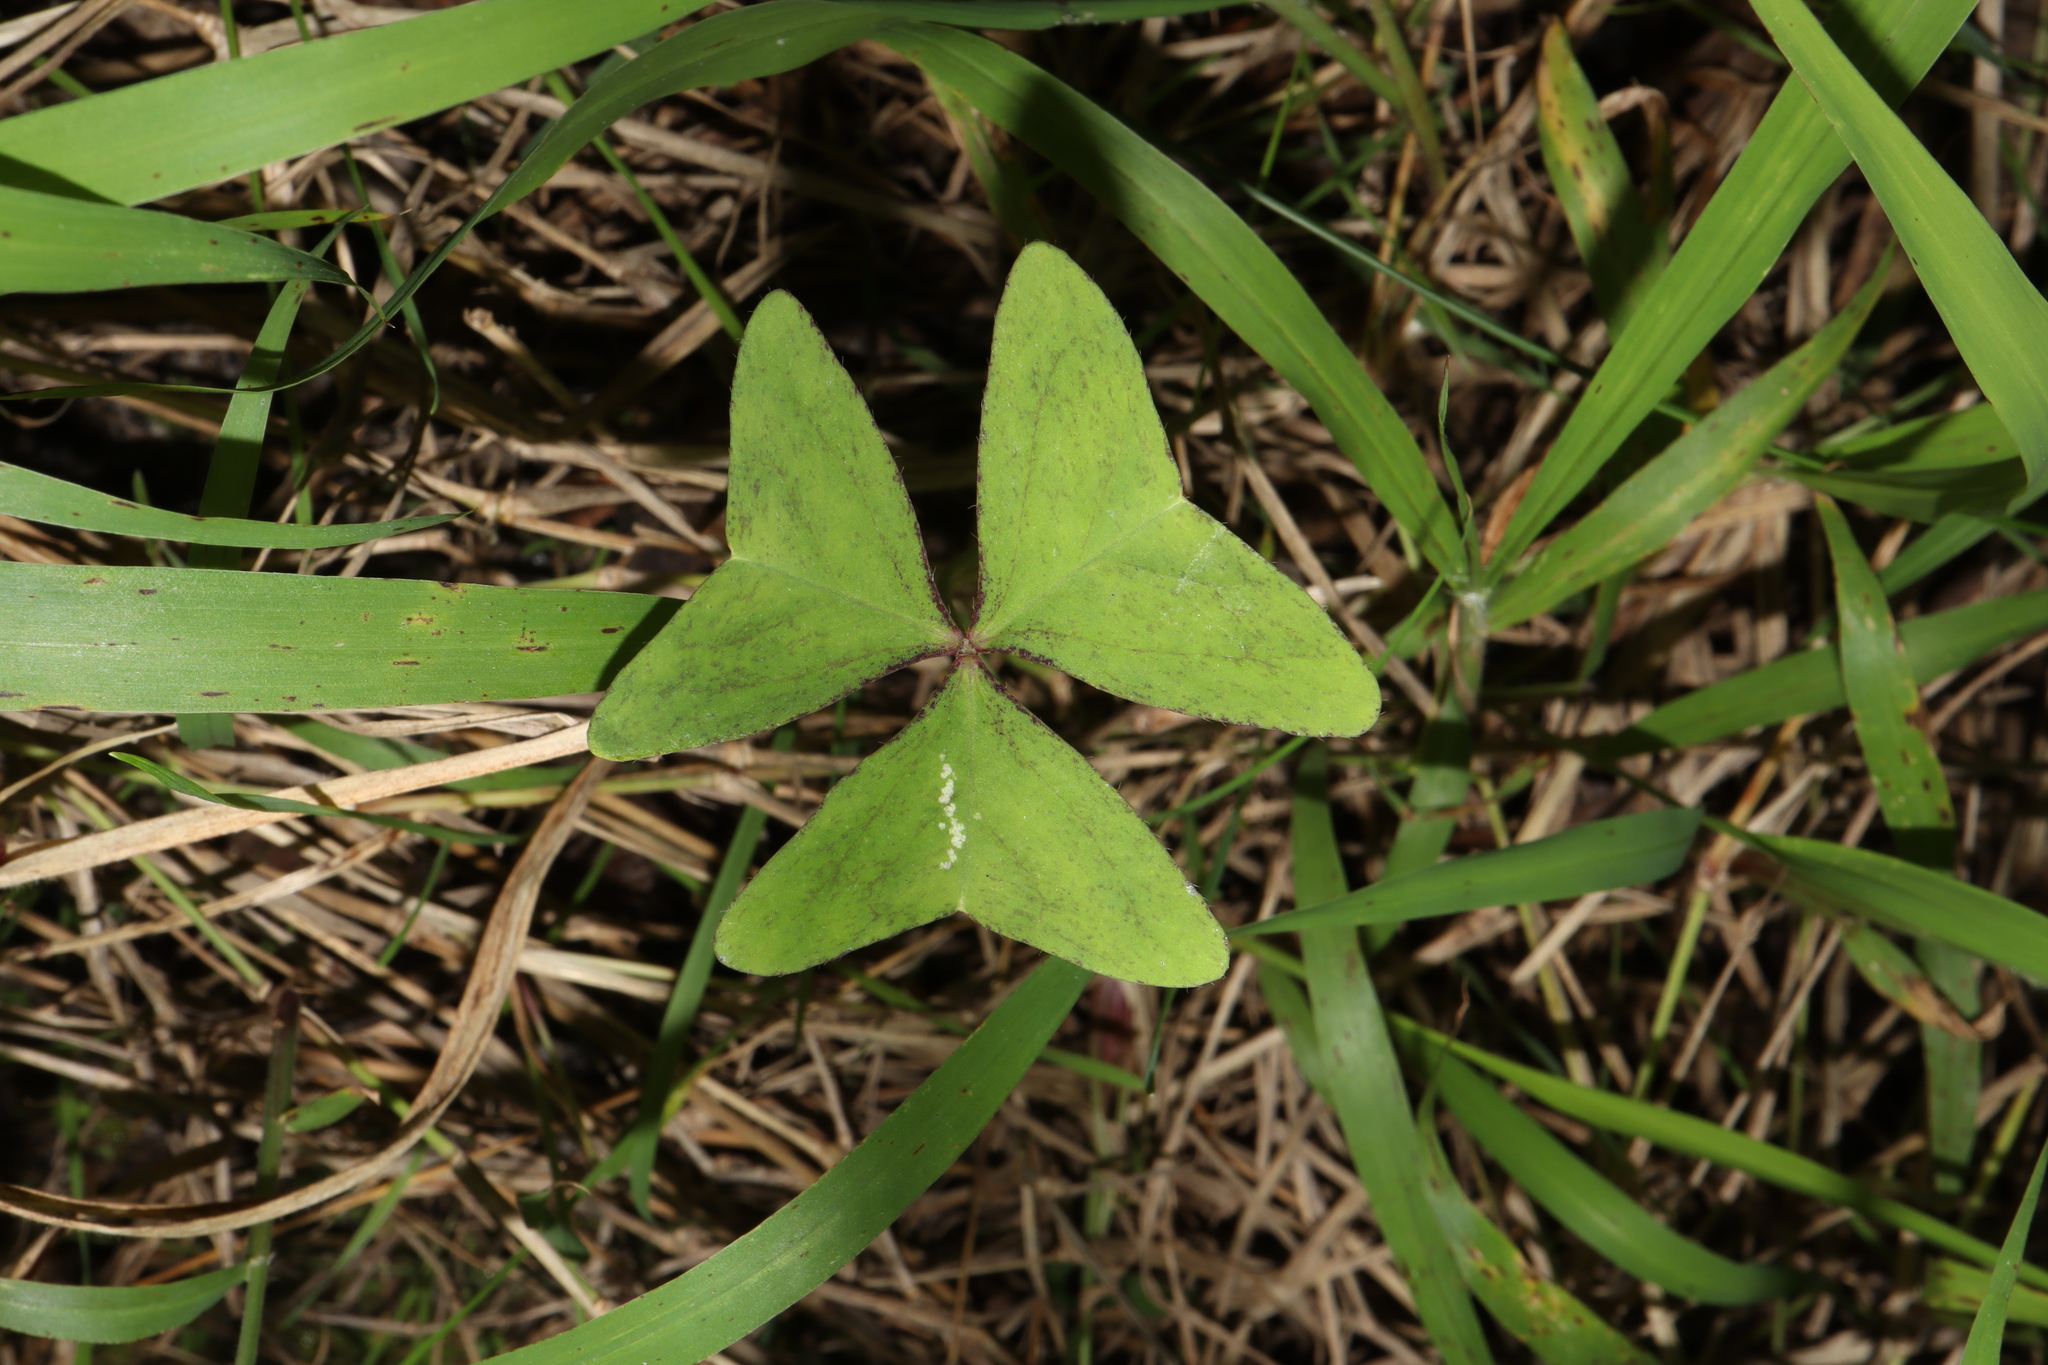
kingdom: Plantae
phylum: Tracheophyta
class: Magnoliopsida
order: Oxalidales
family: Oxalidaceae
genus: Oxalis
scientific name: Oxalis latifolia
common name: Garden pink-sorrel
